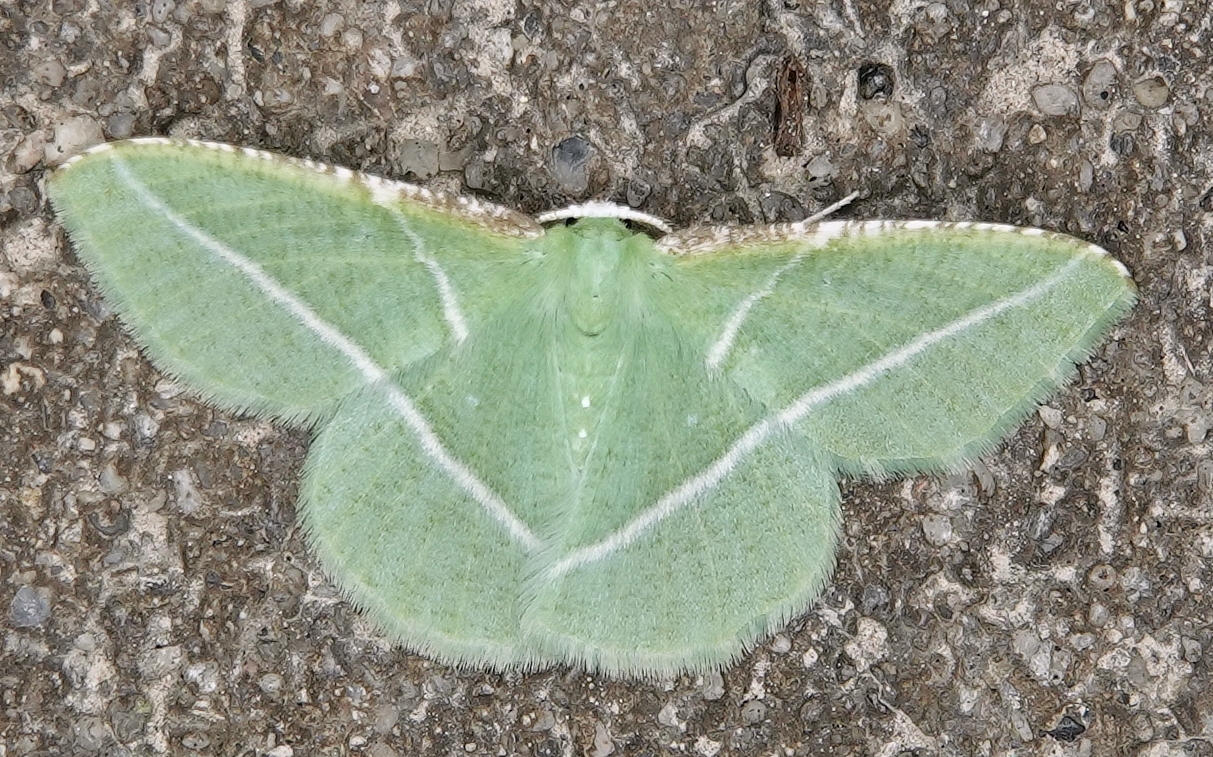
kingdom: Animalia
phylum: Arthropoda
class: Insecta
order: Lepidoptera
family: Geometridae
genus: Dichorda
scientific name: Dichorda rectaria
